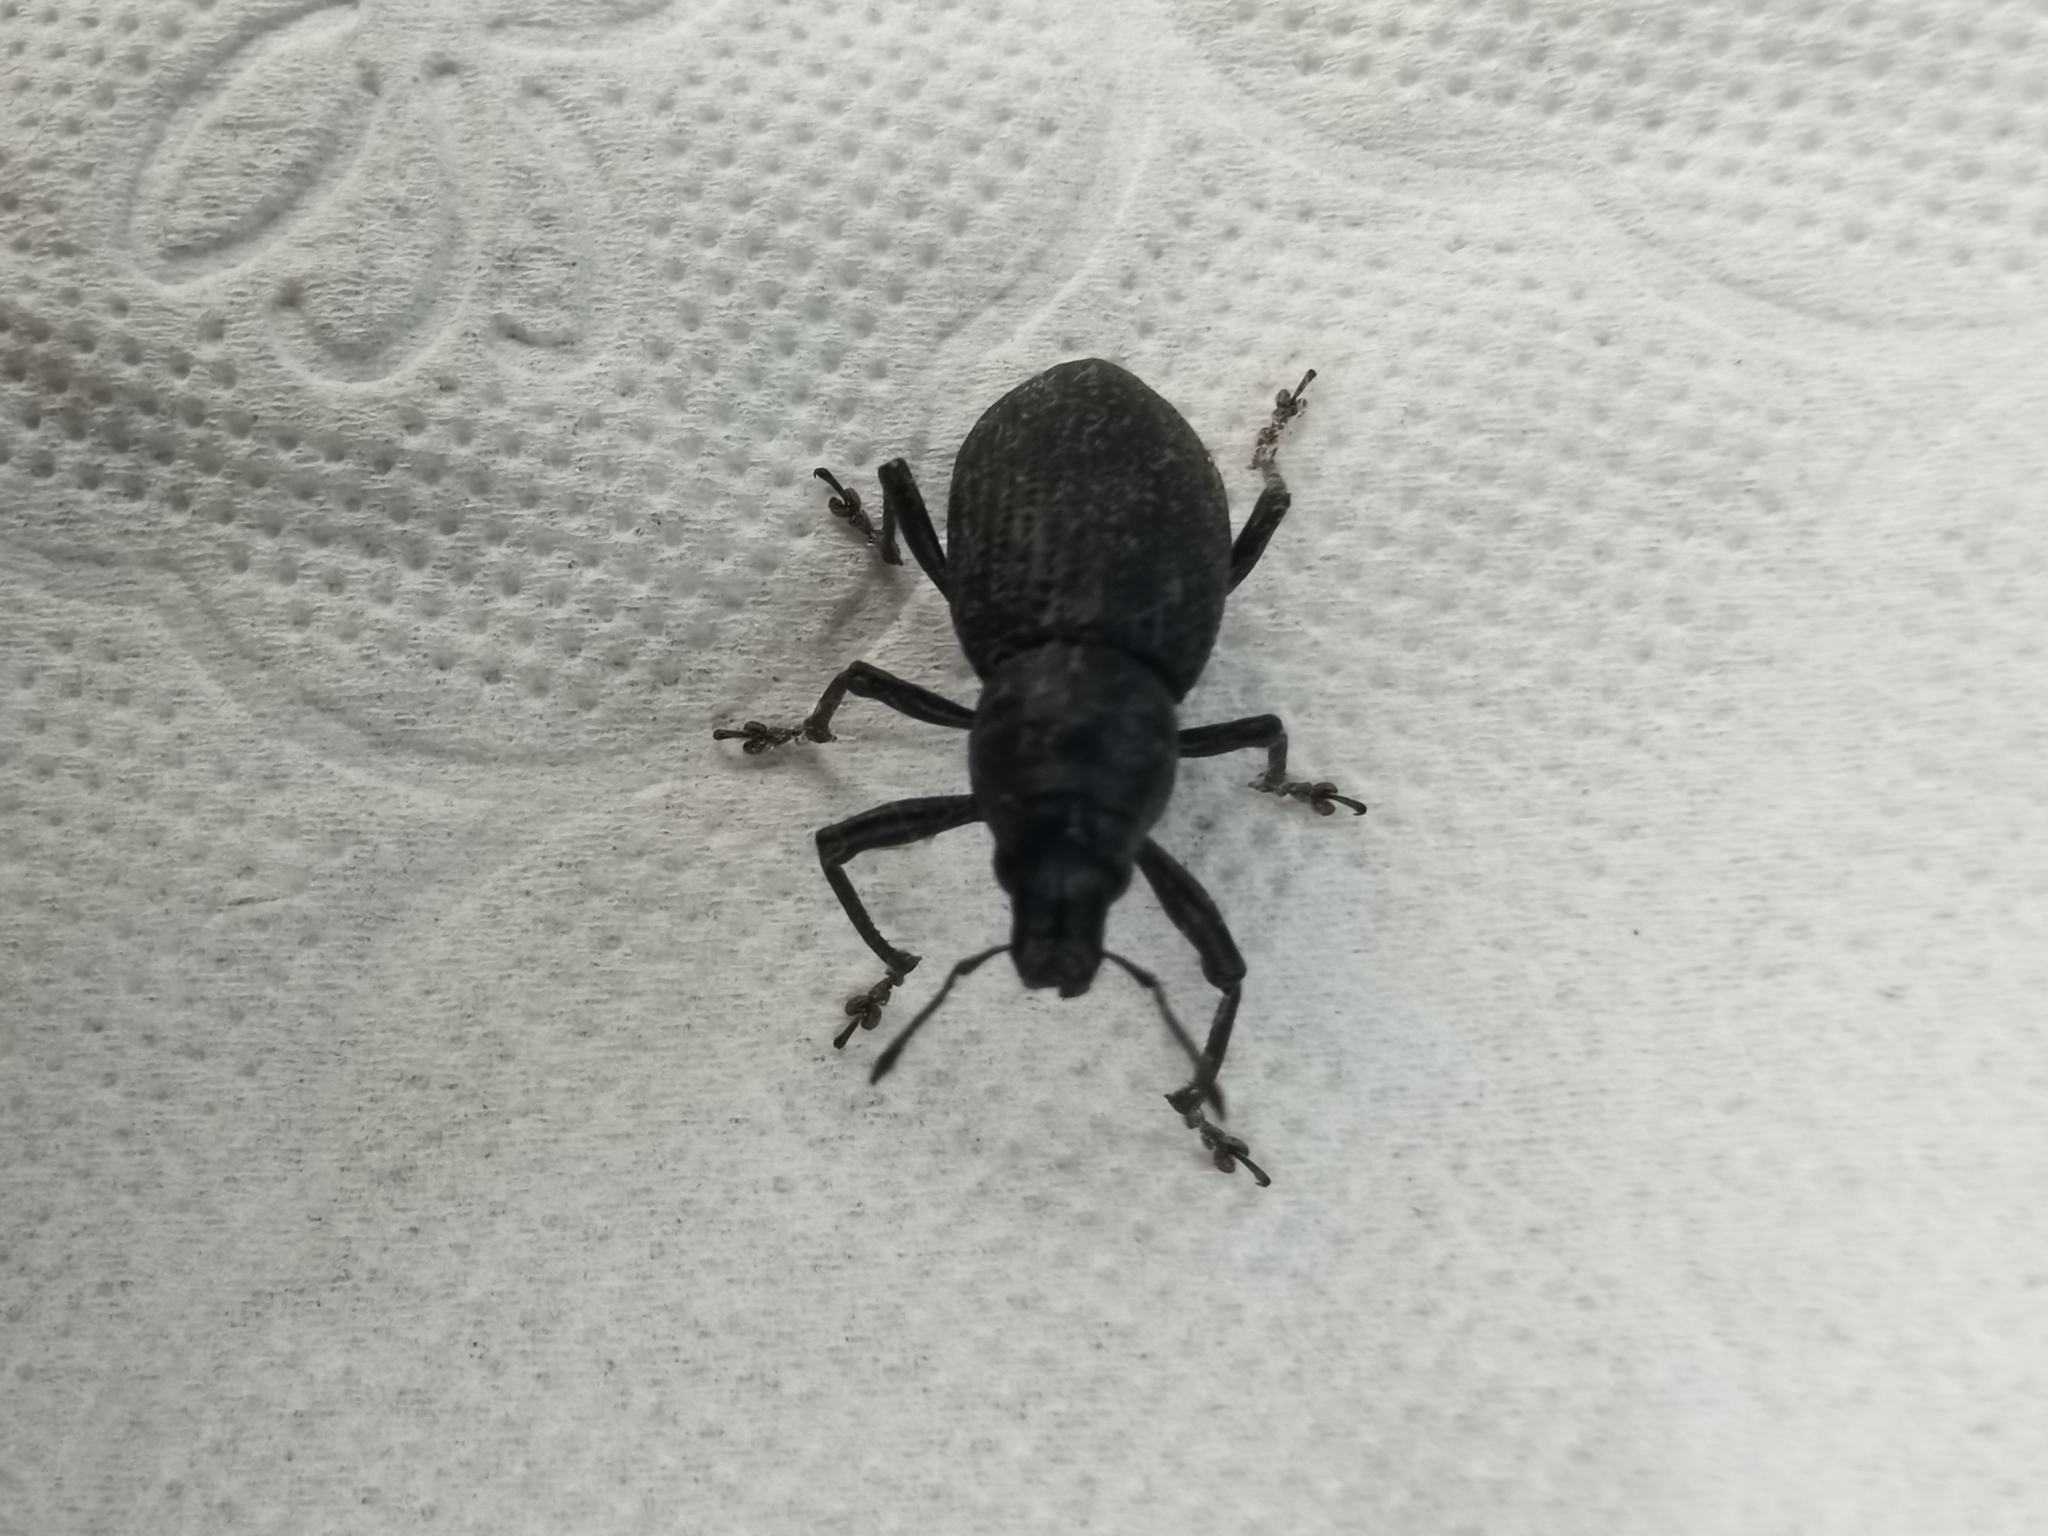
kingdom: Animalia
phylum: Arthropoda
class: Insecta
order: Coleoptera
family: Curculionidae
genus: Herpisticus
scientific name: Herpisticus hierrensis
